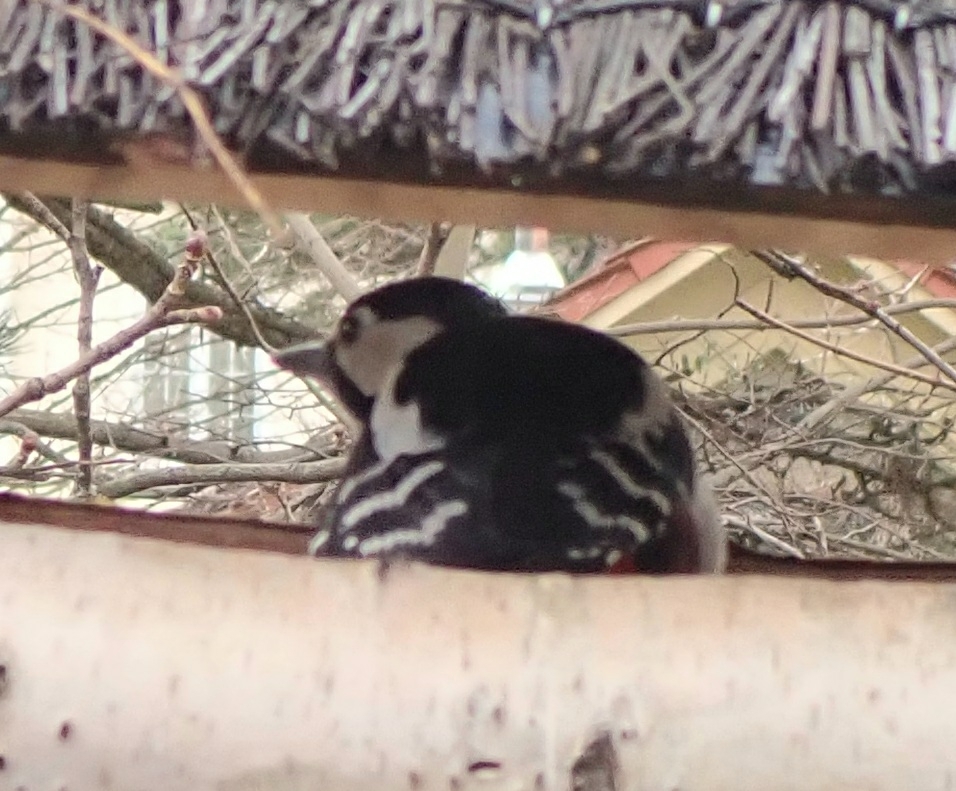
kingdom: Animalia
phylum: Chordata
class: Aves
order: Piciformes
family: Picidae
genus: Dendrocopos
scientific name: Dendrocopos major
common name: Great spotted woodpecker
